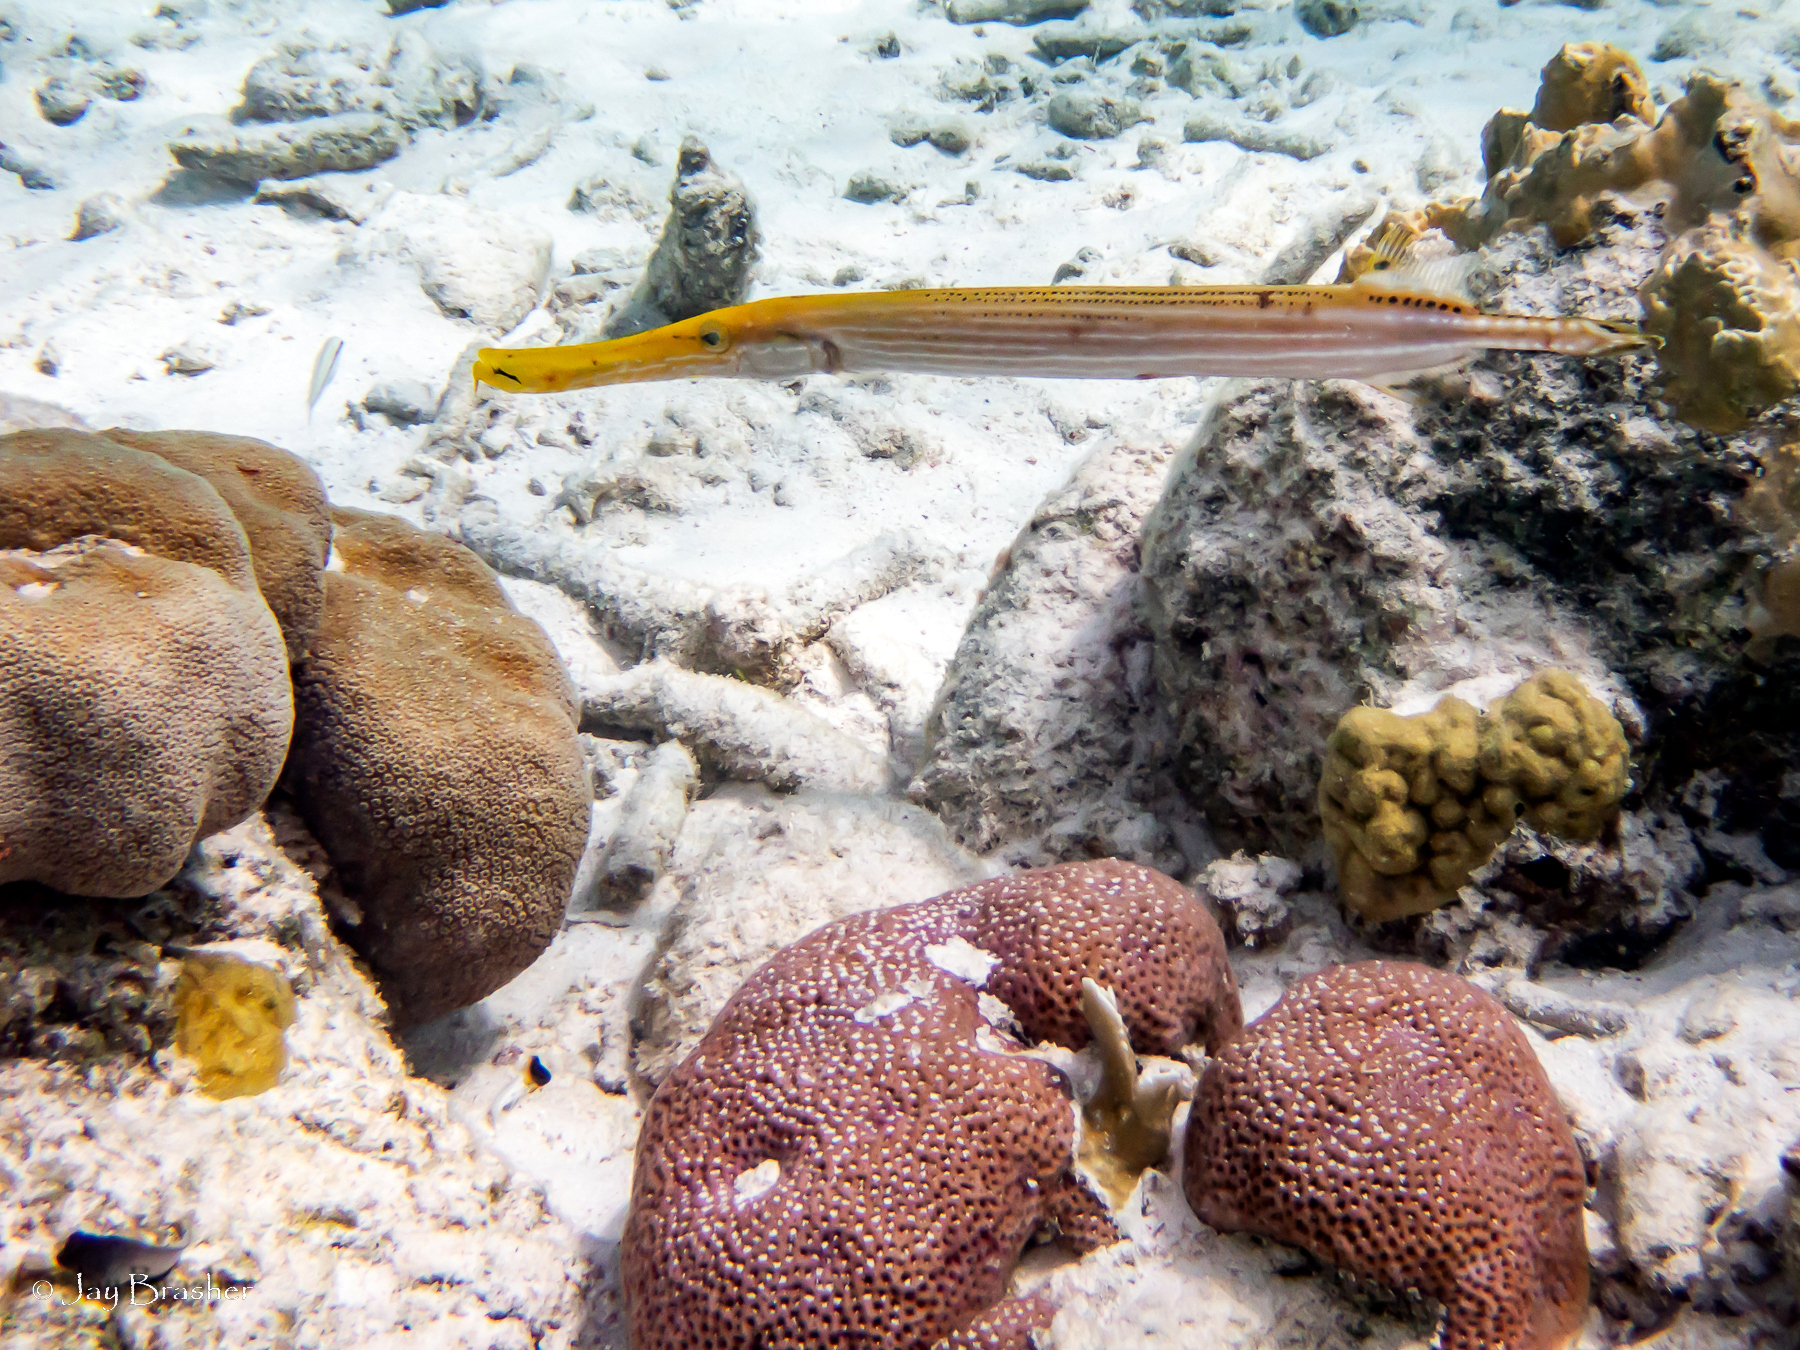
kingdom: Animalia
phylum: Cnidaria
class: Anthozoa
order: Scleractinia
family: Poritidae
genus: Porites
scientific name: Porites astreoides
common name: Mustard hill coral
